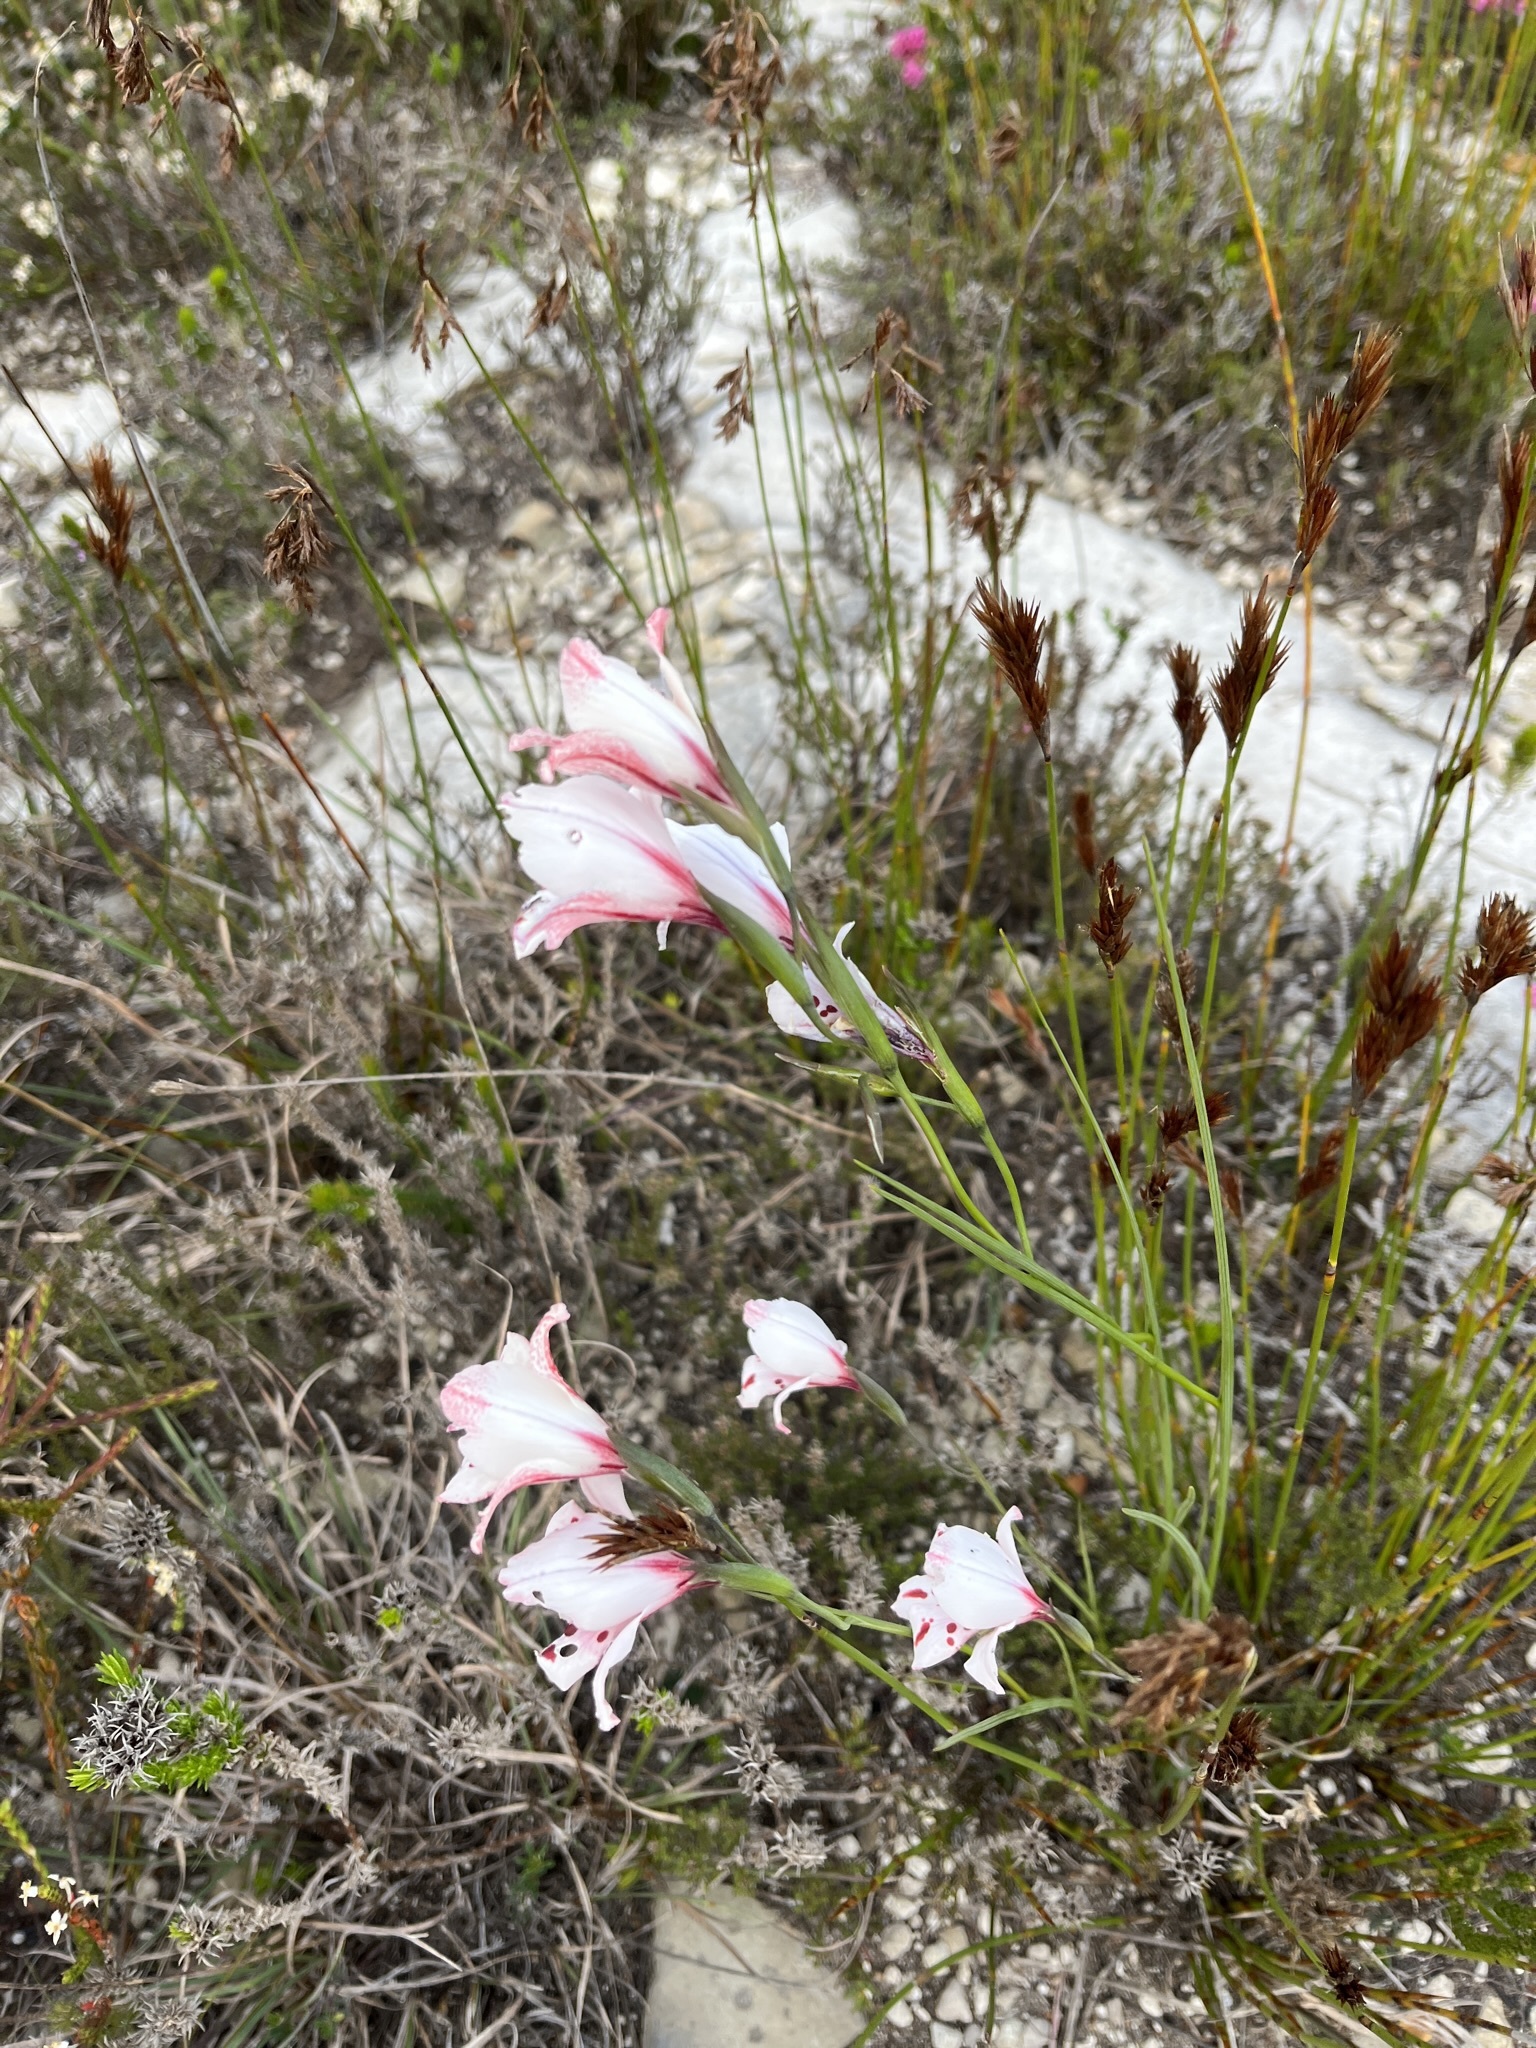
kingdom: Plantae
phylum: Tracheophyta
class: Liliopsida
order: Asparagales
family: Iridaceae
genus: Gladiolus
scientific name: Gladiolus variegatus
